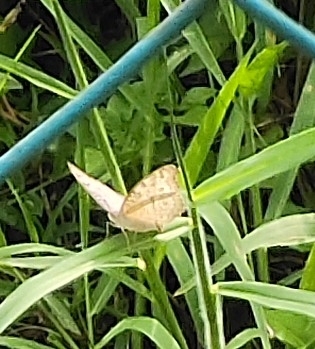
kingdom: Animalia
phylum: Arthropoda
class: Insecta
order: Lepidoptera
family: Nymphalidae
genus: Junonia
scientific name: Junonia atlites
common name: Grey pansy
